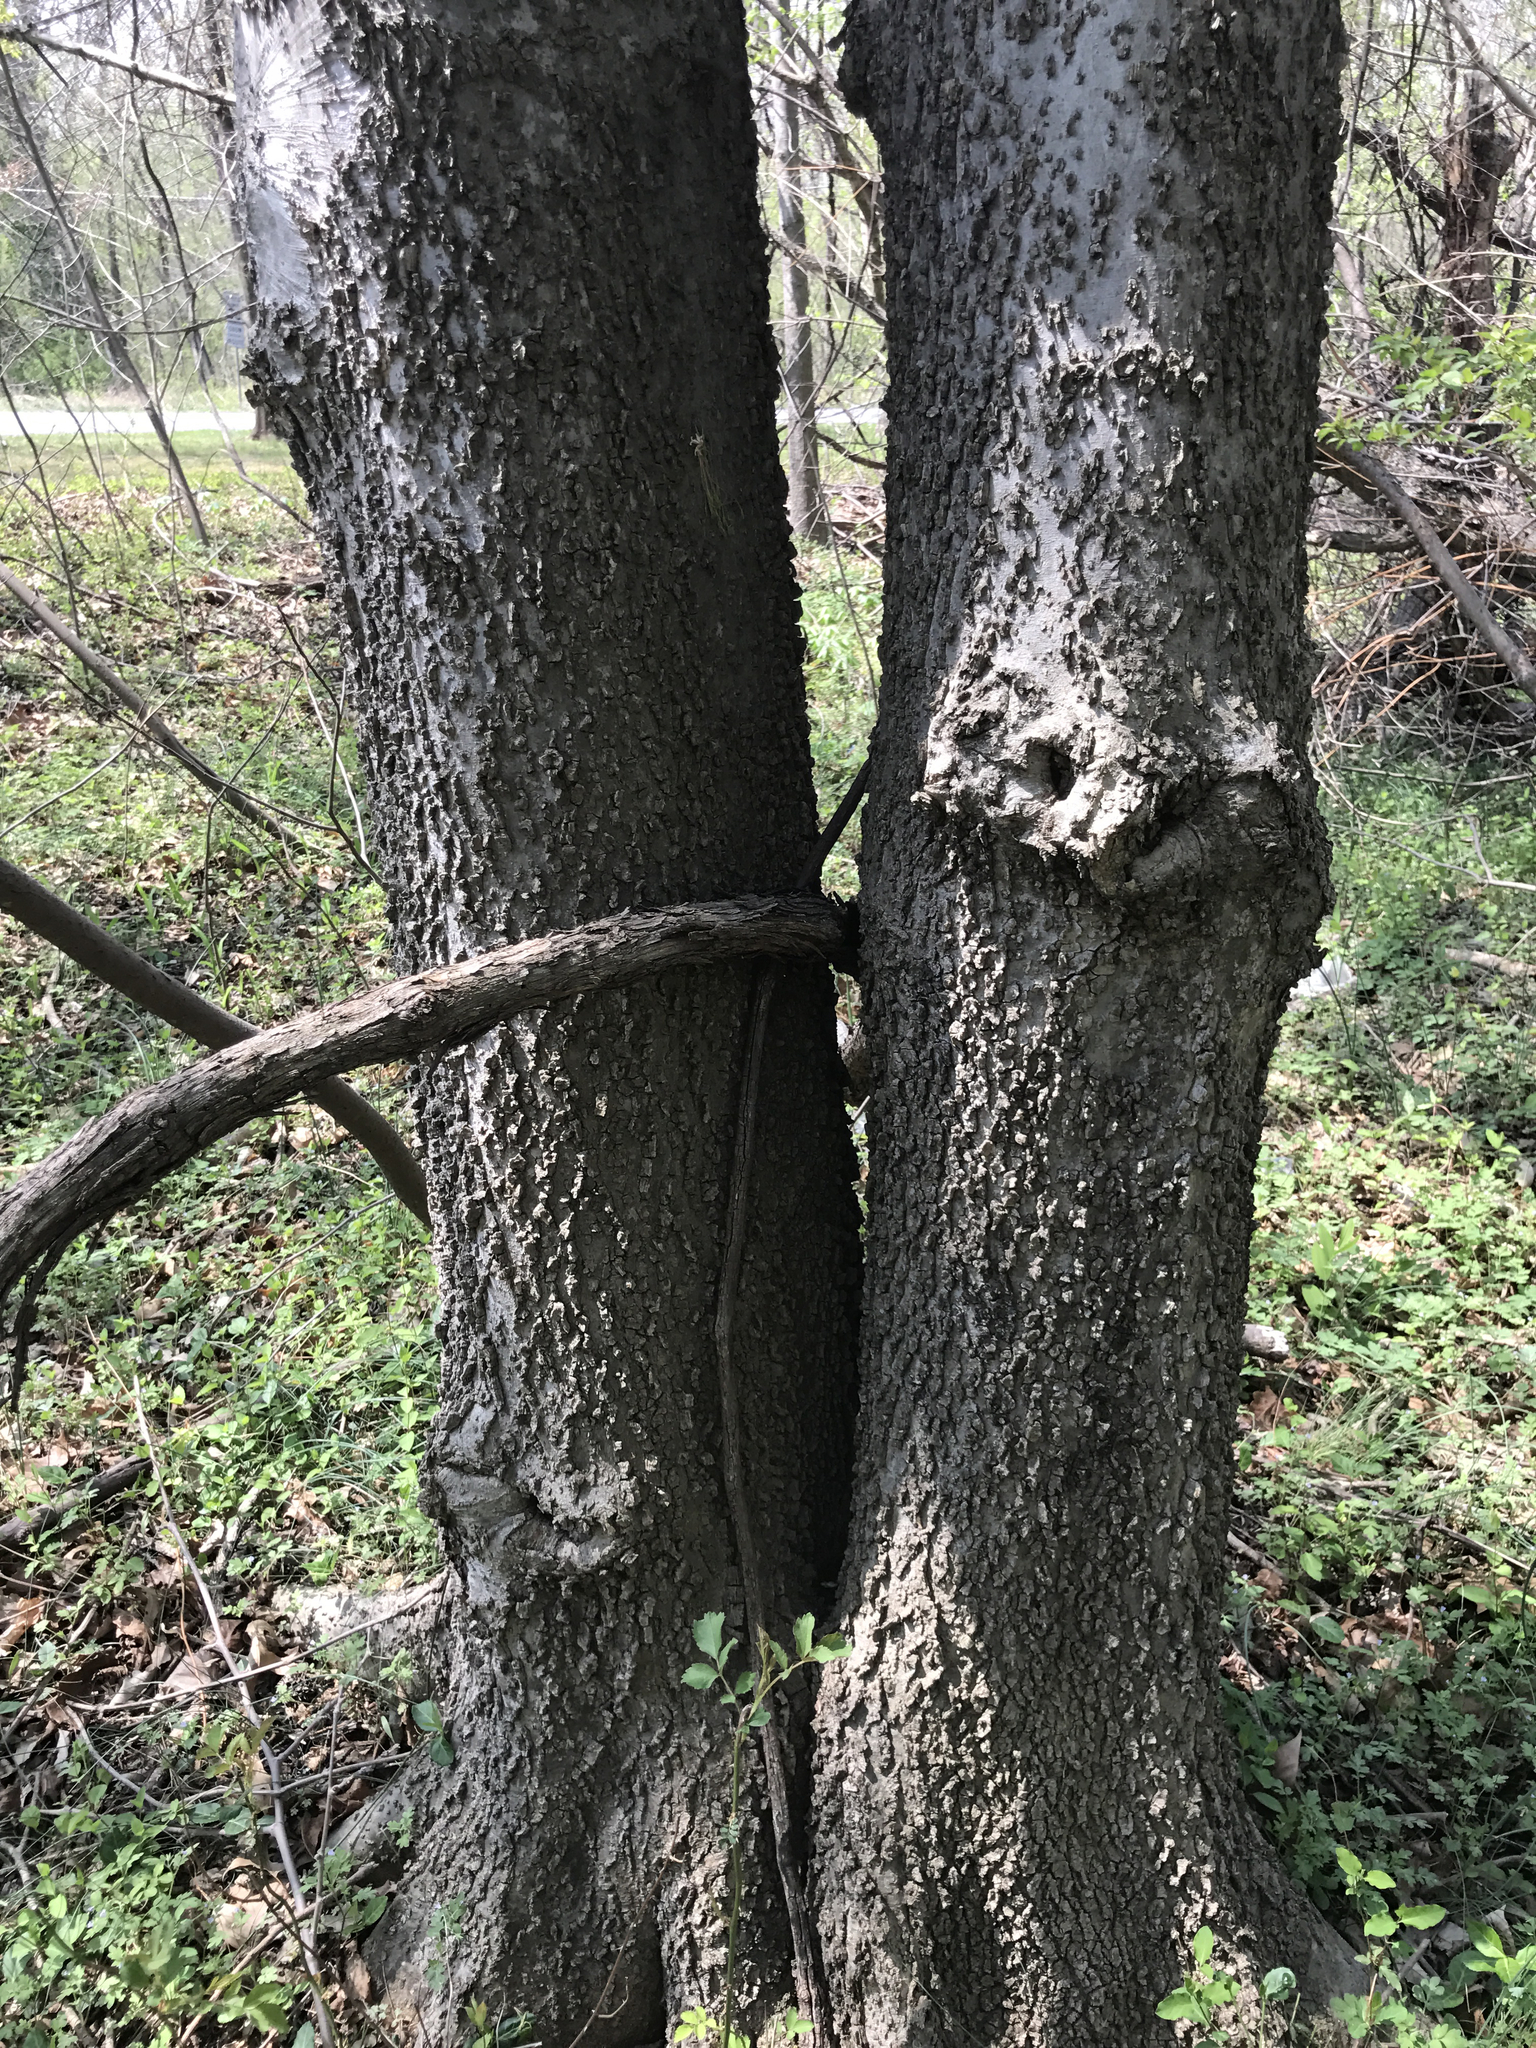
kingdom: Plantae
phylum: Tracheophyta
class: Magnoliopsida
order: Rosales
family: Cannabaceae
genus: Celtis
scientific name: Celtis occidentalis
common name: Common hackberry
